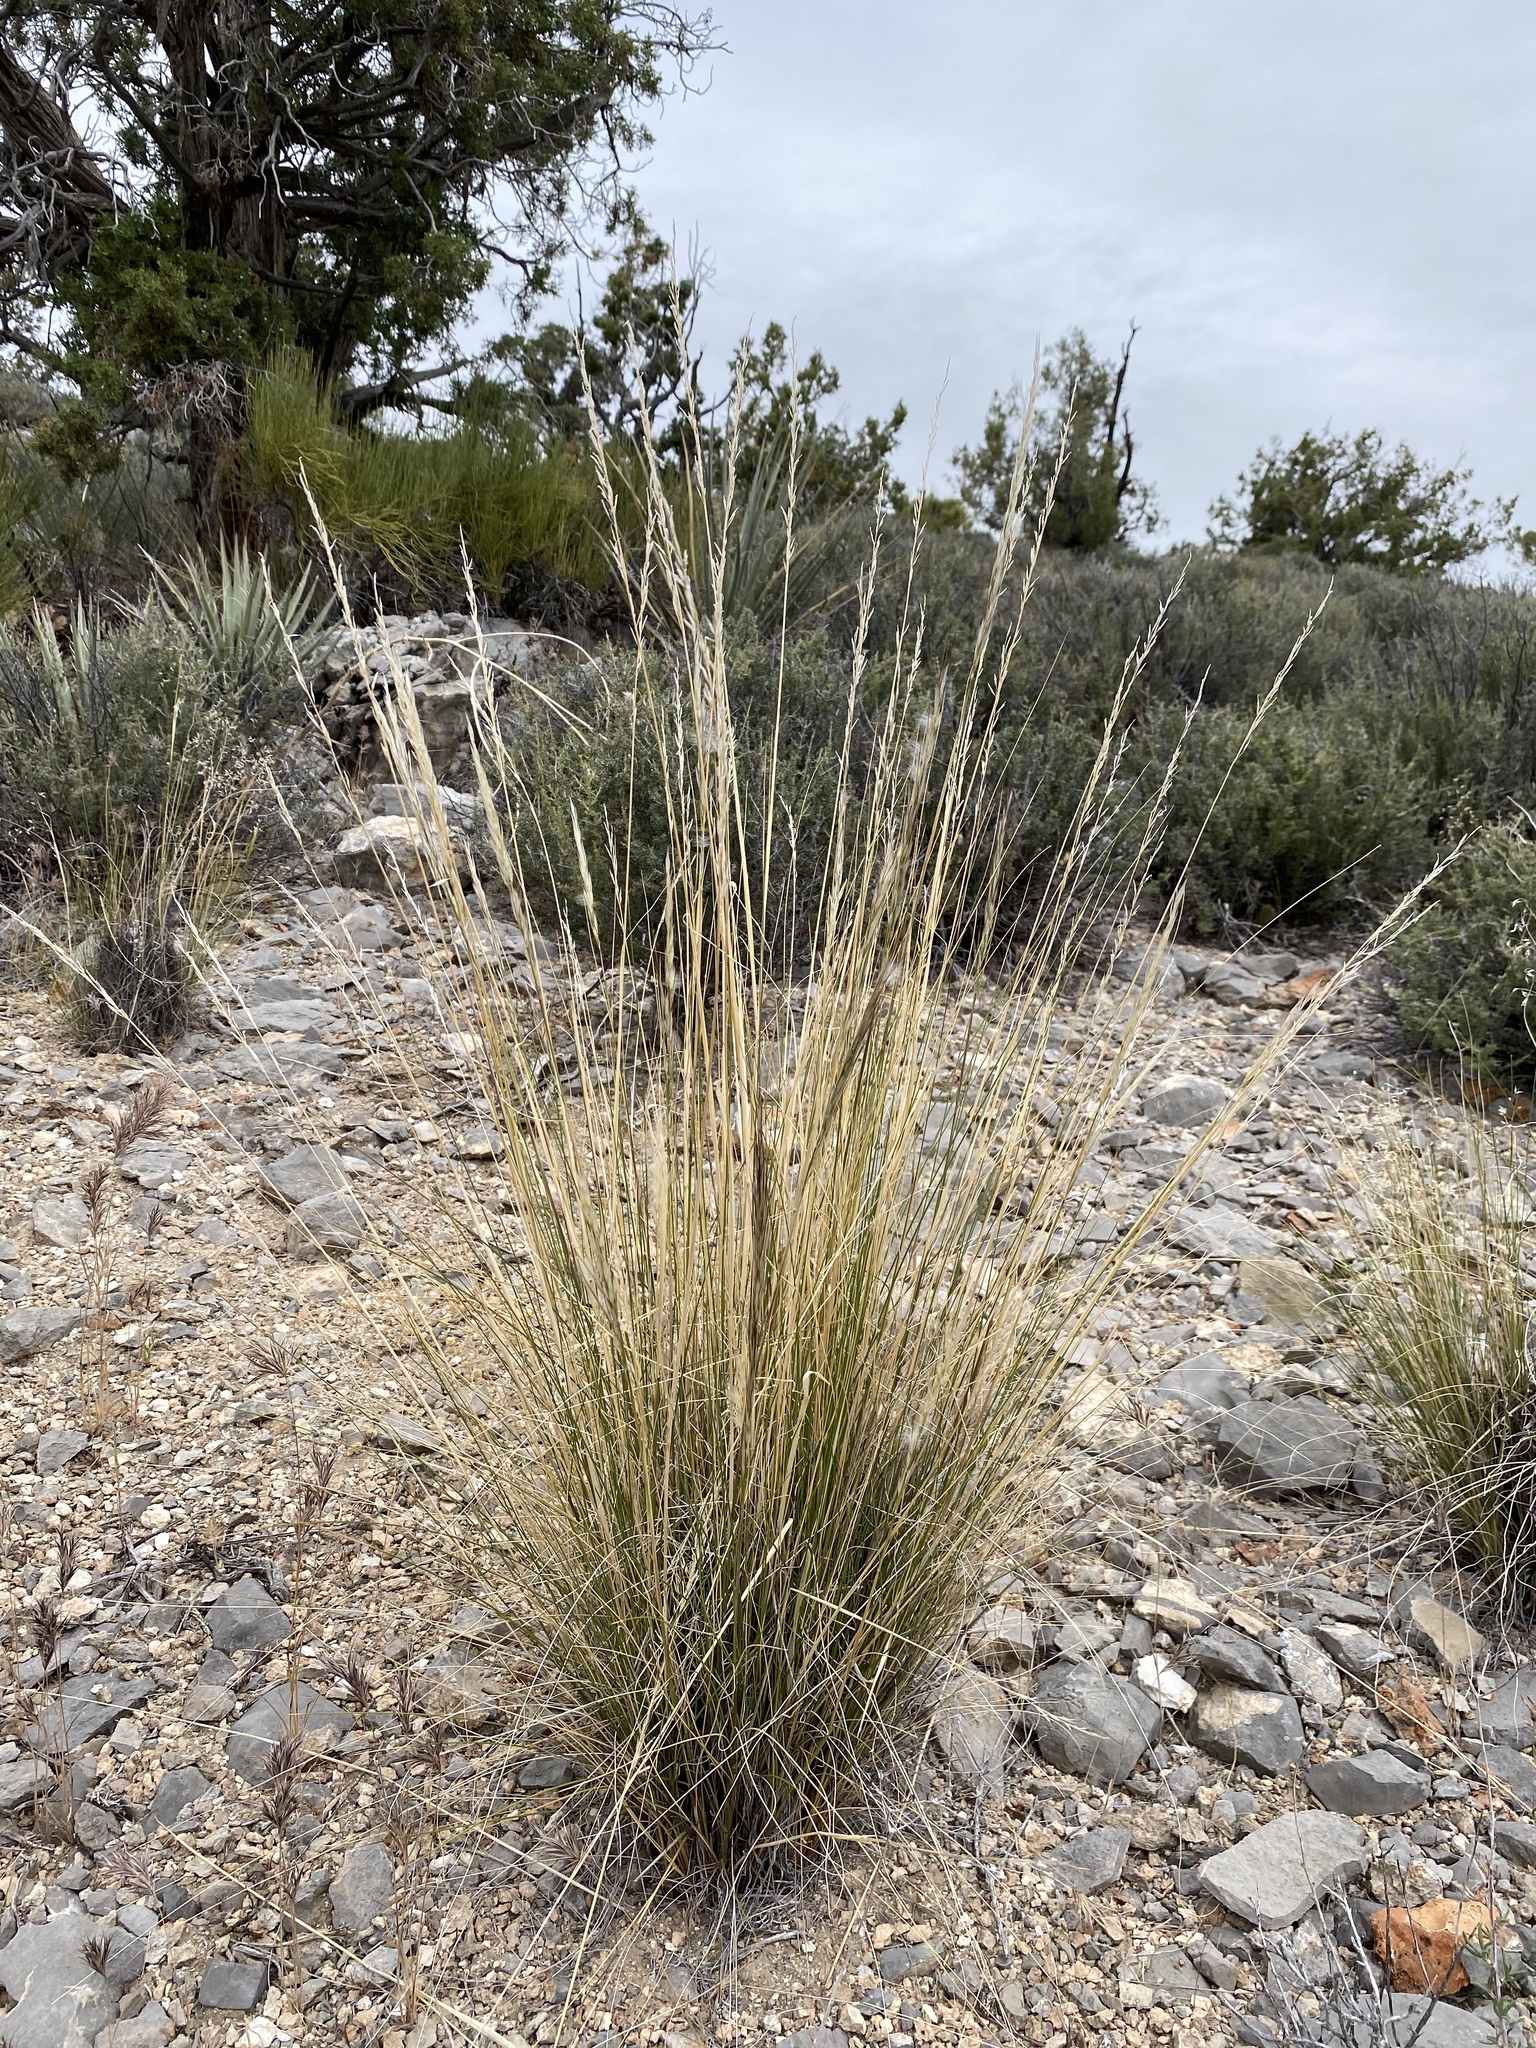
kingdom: Plantae
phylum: Tracheophyta
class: Liliopsida
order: Poales
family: Poaceae
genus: Pappostipa
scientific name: Pappostipa speciosa
